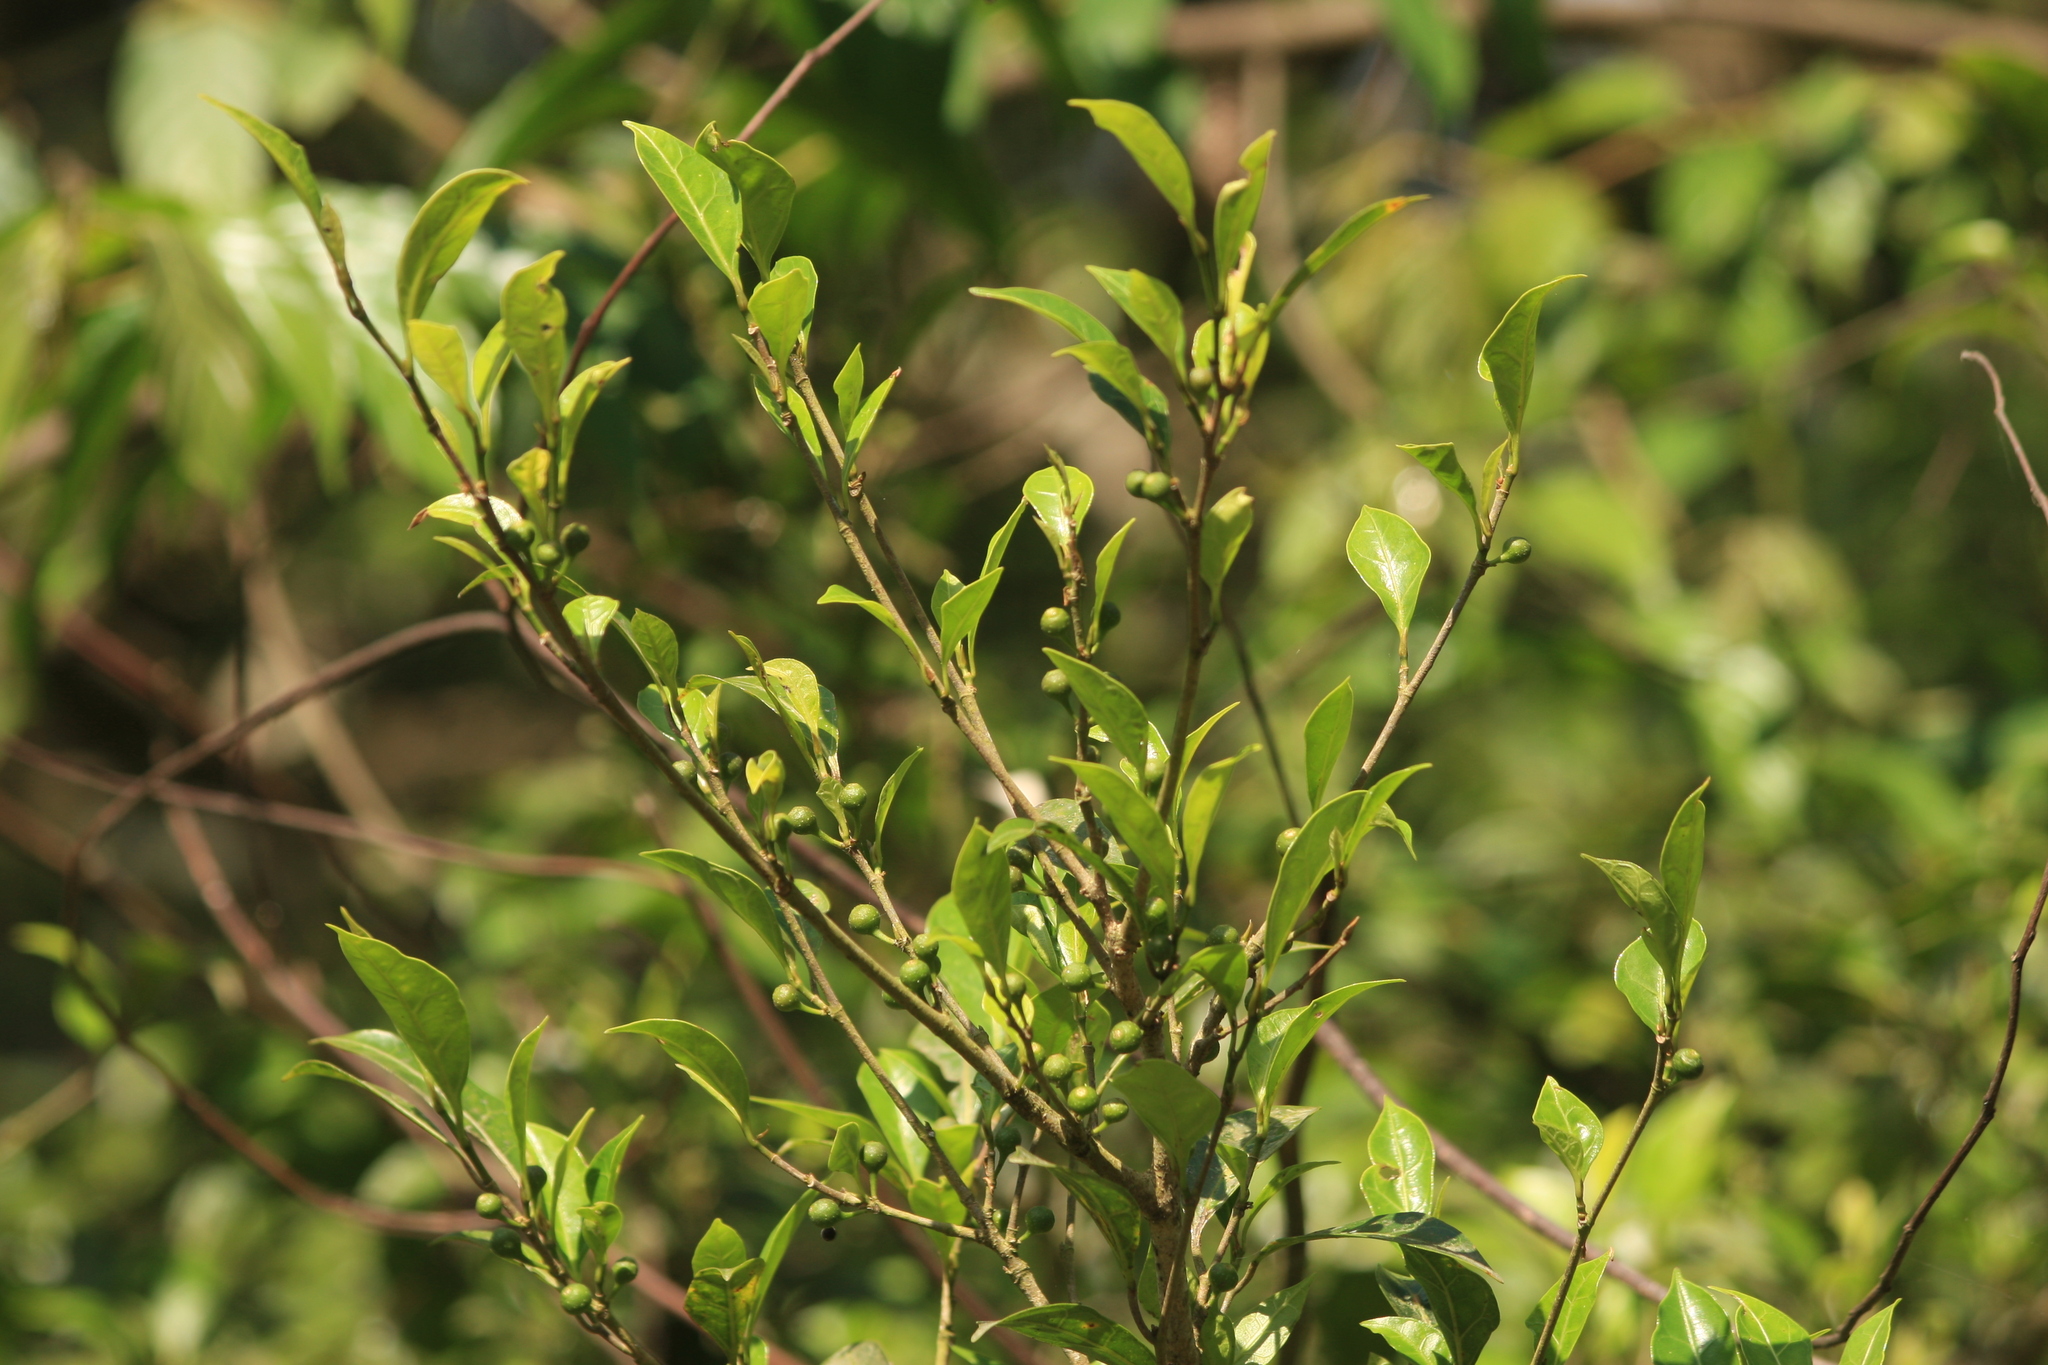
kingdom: Plantae
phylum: Tracheophyta
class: Magnoliopsida
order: Rosales
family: Moraceae
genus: Ficus
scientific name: Ficus tinctoria
